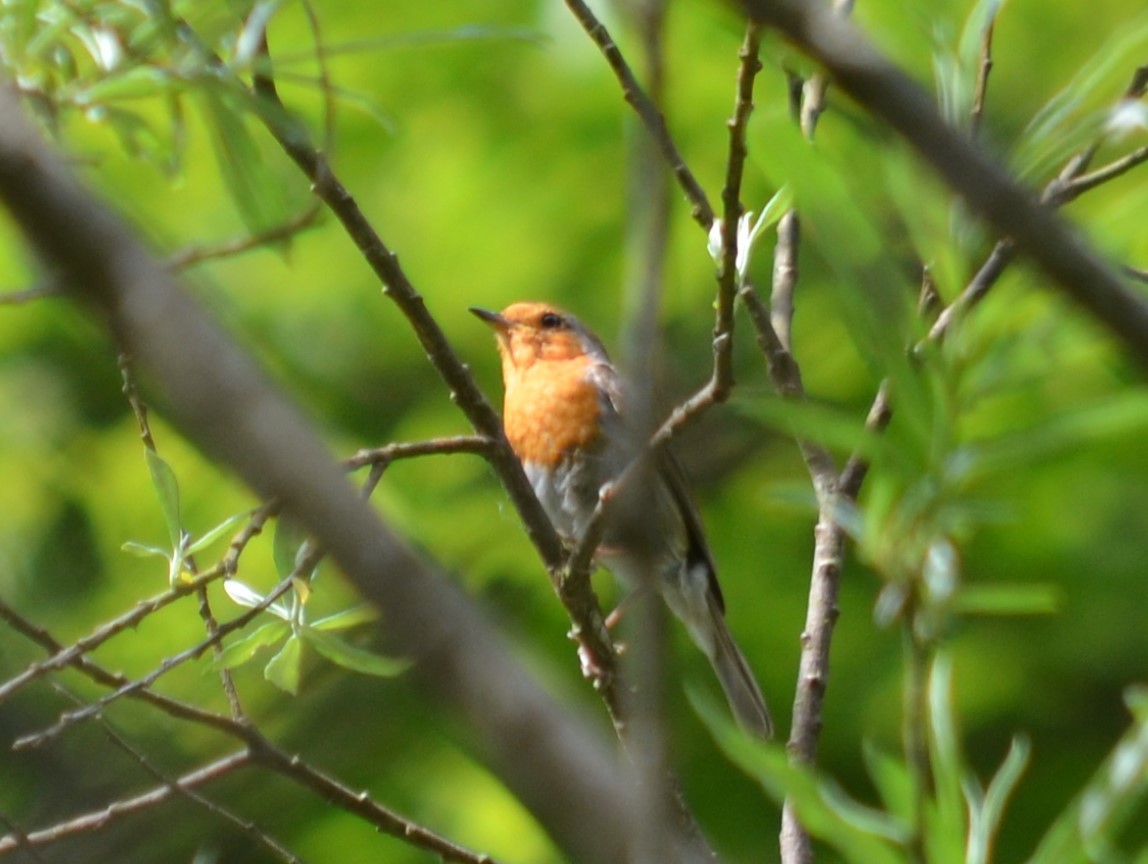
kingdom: Animalia
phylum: Chordata
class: Aves
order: Passeriformes
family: Muscicapidae
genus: Erithacus
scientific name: Erithacus rubecula
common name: European robin
